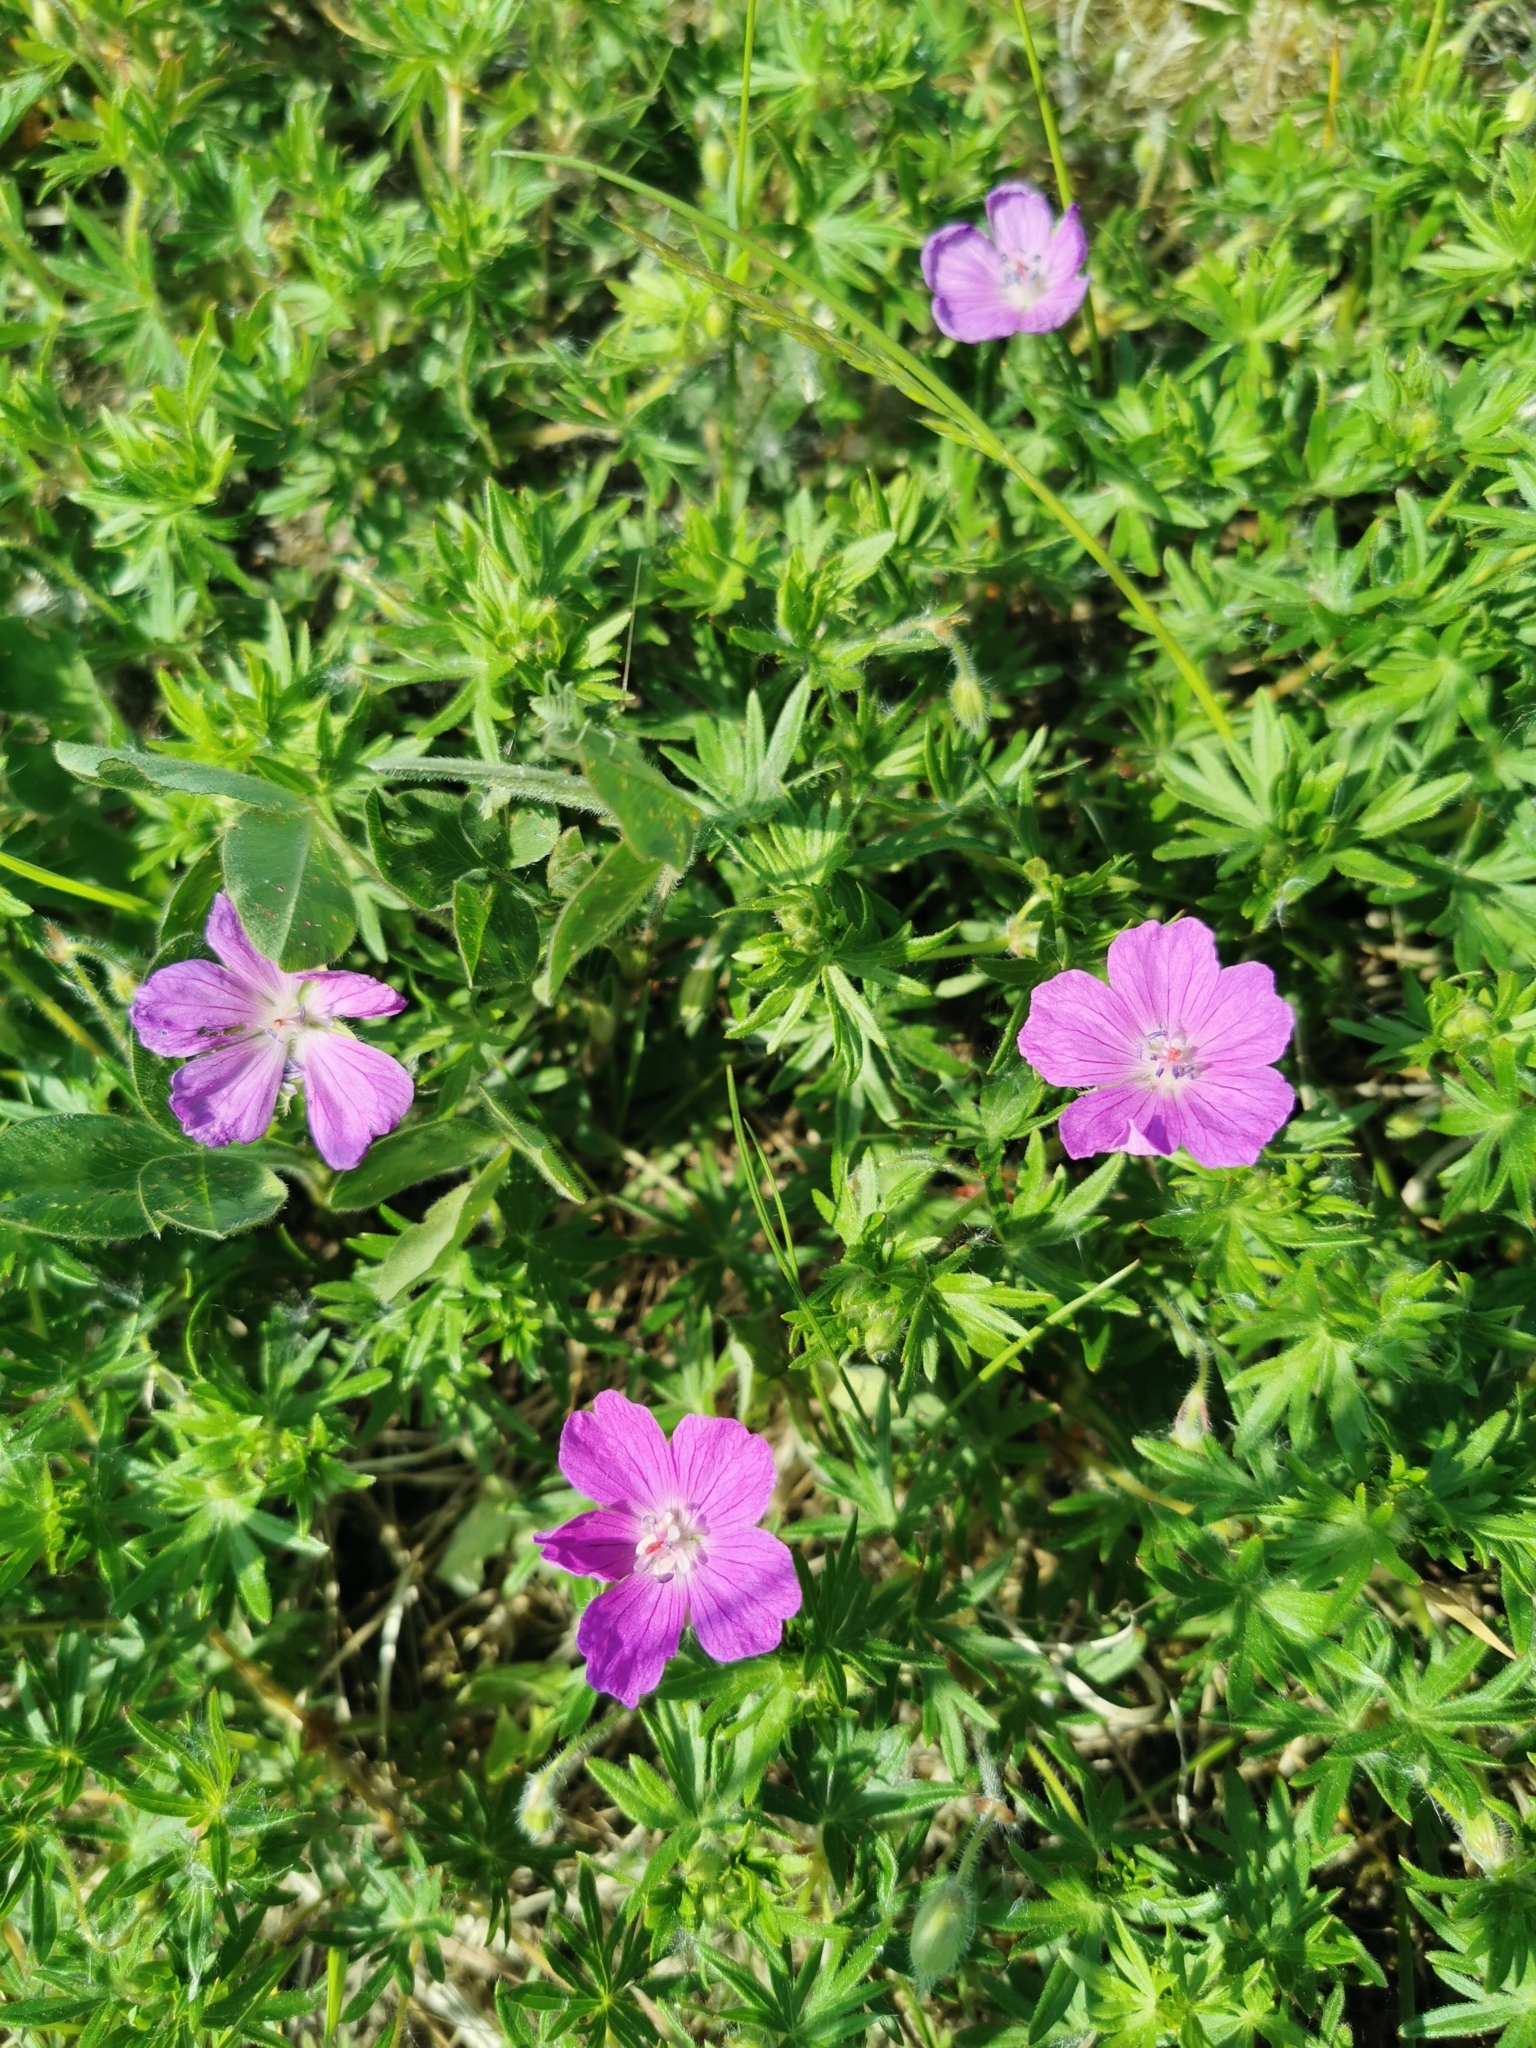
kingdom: Plantae
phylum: Tracheophyta
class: Magnoliopsida
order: Geraniales
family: Geraniaceae
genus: Geranium
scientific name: Geranium sanguineum
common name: Bloody crane's-bill
